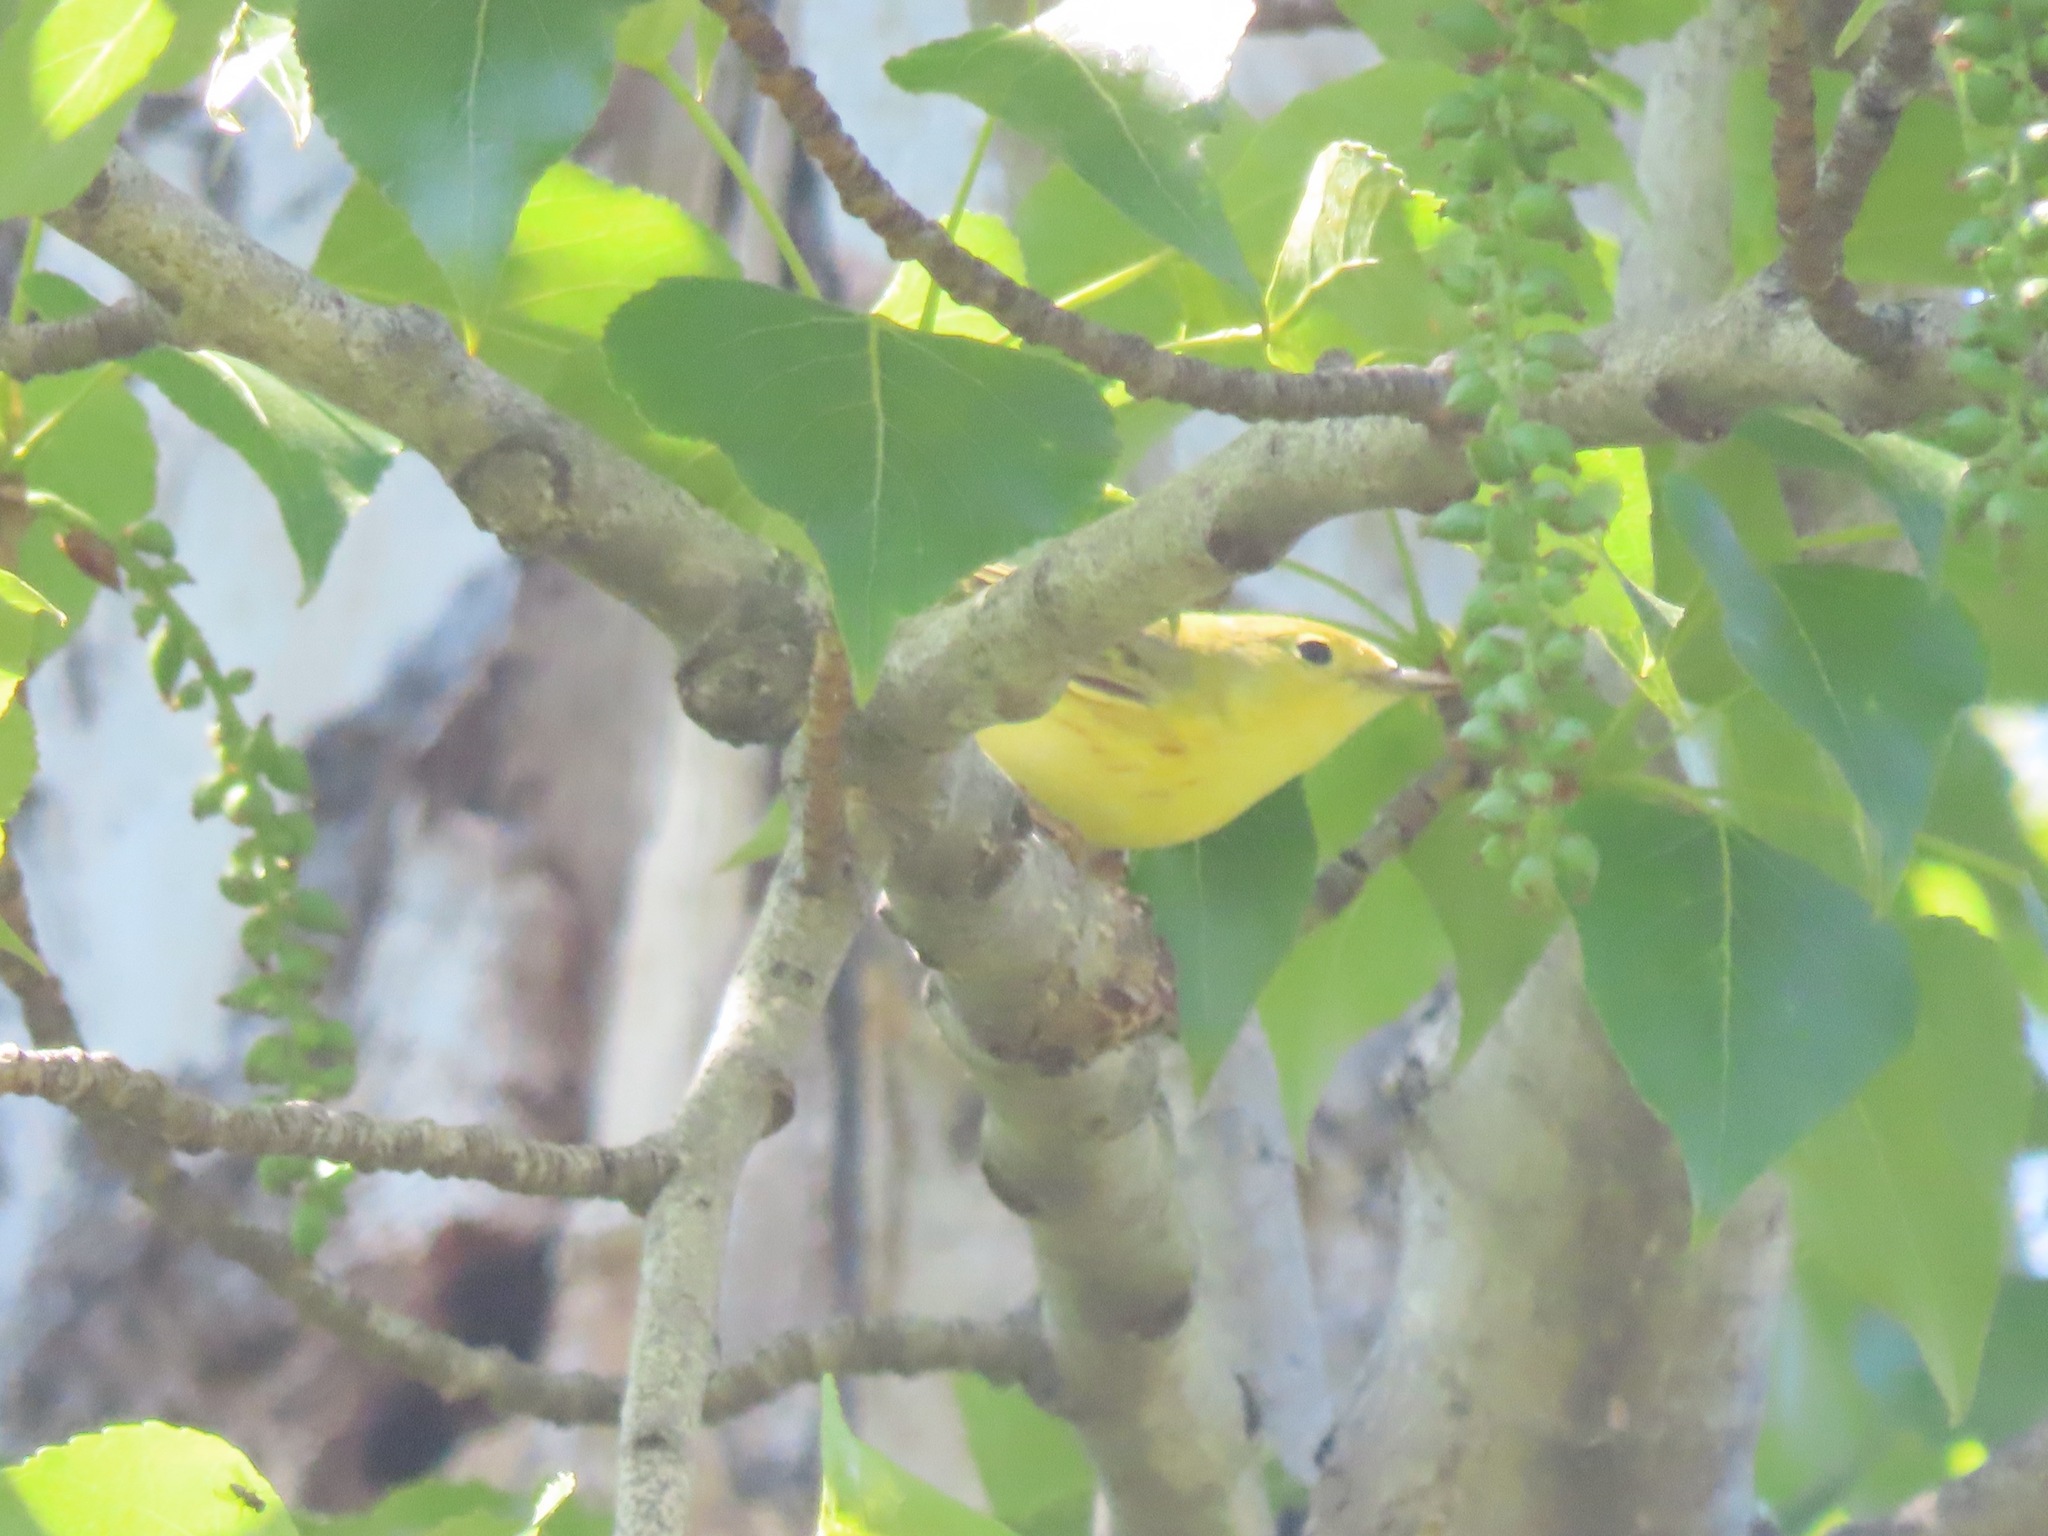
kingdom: Animalia
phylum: Chordata
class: Aves
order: Passeriformes
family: Parulidae
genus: Setophaga
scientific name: Setophaga petechia
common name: Yellow warbler
